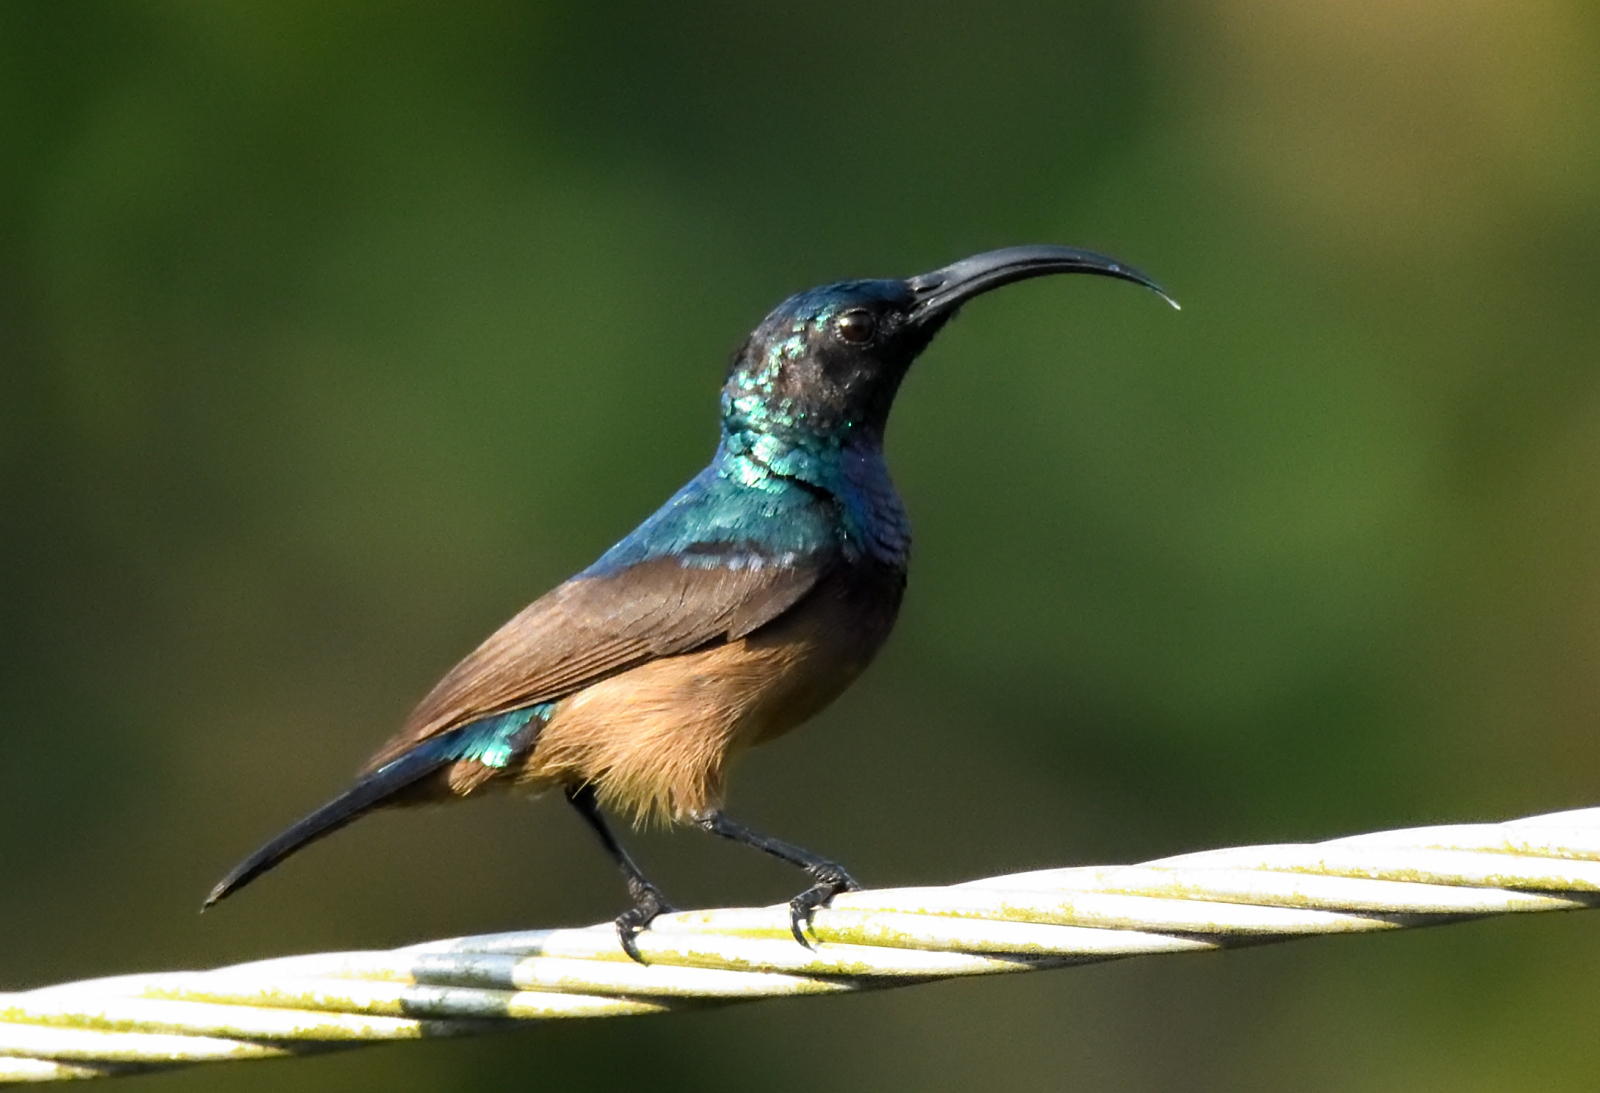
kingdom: Animalia
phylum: Chordata
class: Aves
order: Passeriformes
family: Nectariniidae
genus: Cinnyris
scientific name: Cinnyris lotenius
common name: Loten's sunbird
